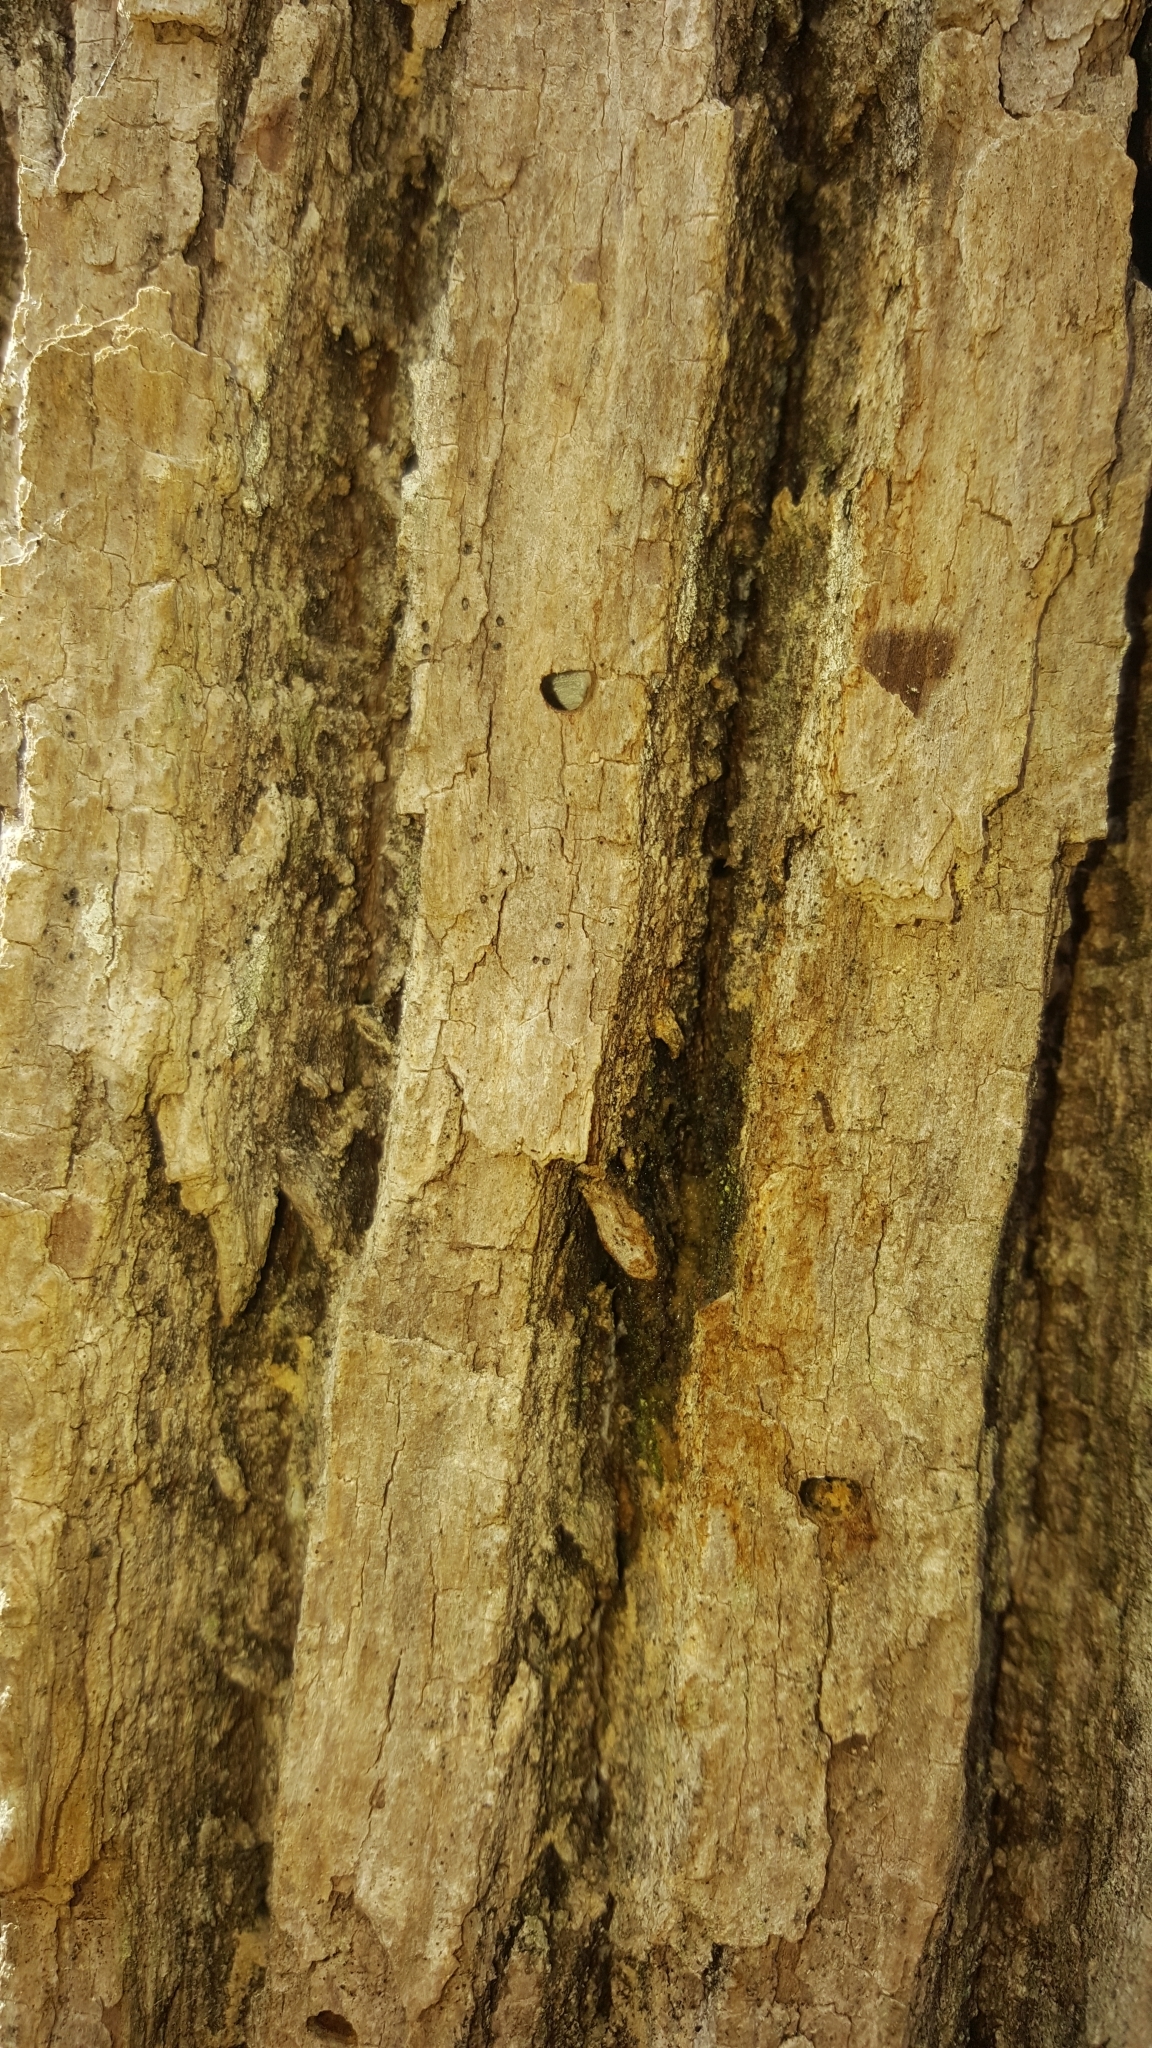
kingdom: Animalia
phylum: Arthropoda
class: Insecta
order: Coleoptera
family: Buprestidae
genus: Agrilus
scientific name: Agrilus planipennis
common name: Emerald ash borer
